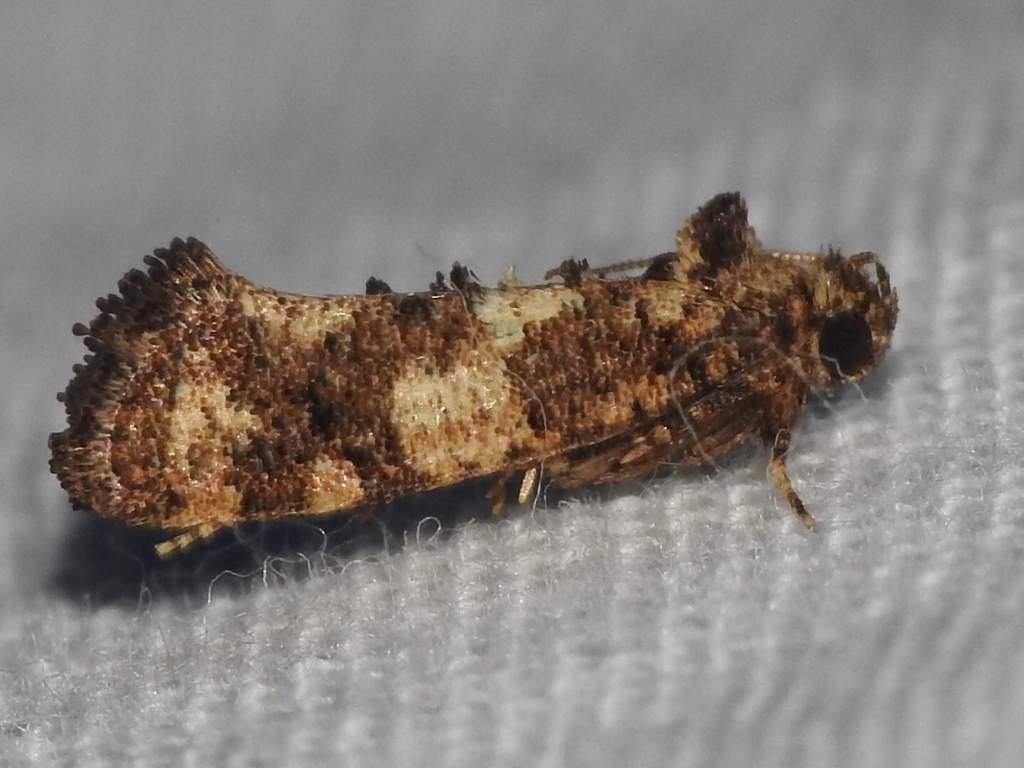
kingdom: Animalia
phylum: Arthropoda
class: Insecta
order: Lepidoptera
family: Tineidae
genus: Acrolophus
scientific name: Acrolophus cressoni
